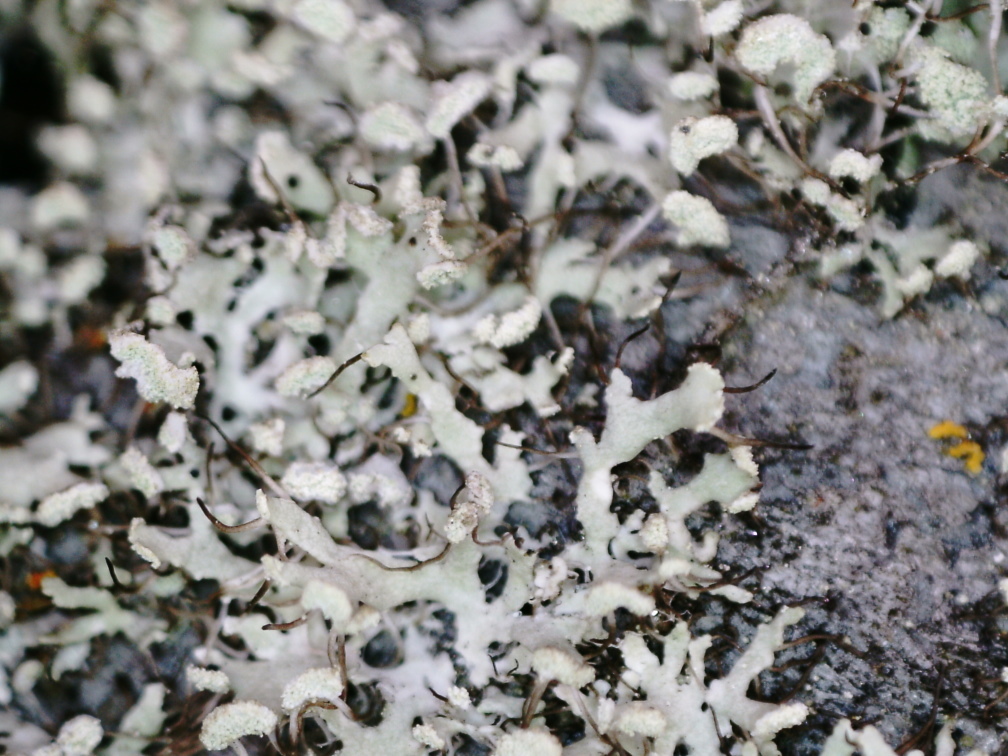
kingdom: Fungi
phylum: Ascomycota
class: Lecanoromycetes
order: Caliciales
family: Physciaceae
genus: Physcia
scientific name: Physcia tenella
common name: Fringed rosette lichen
